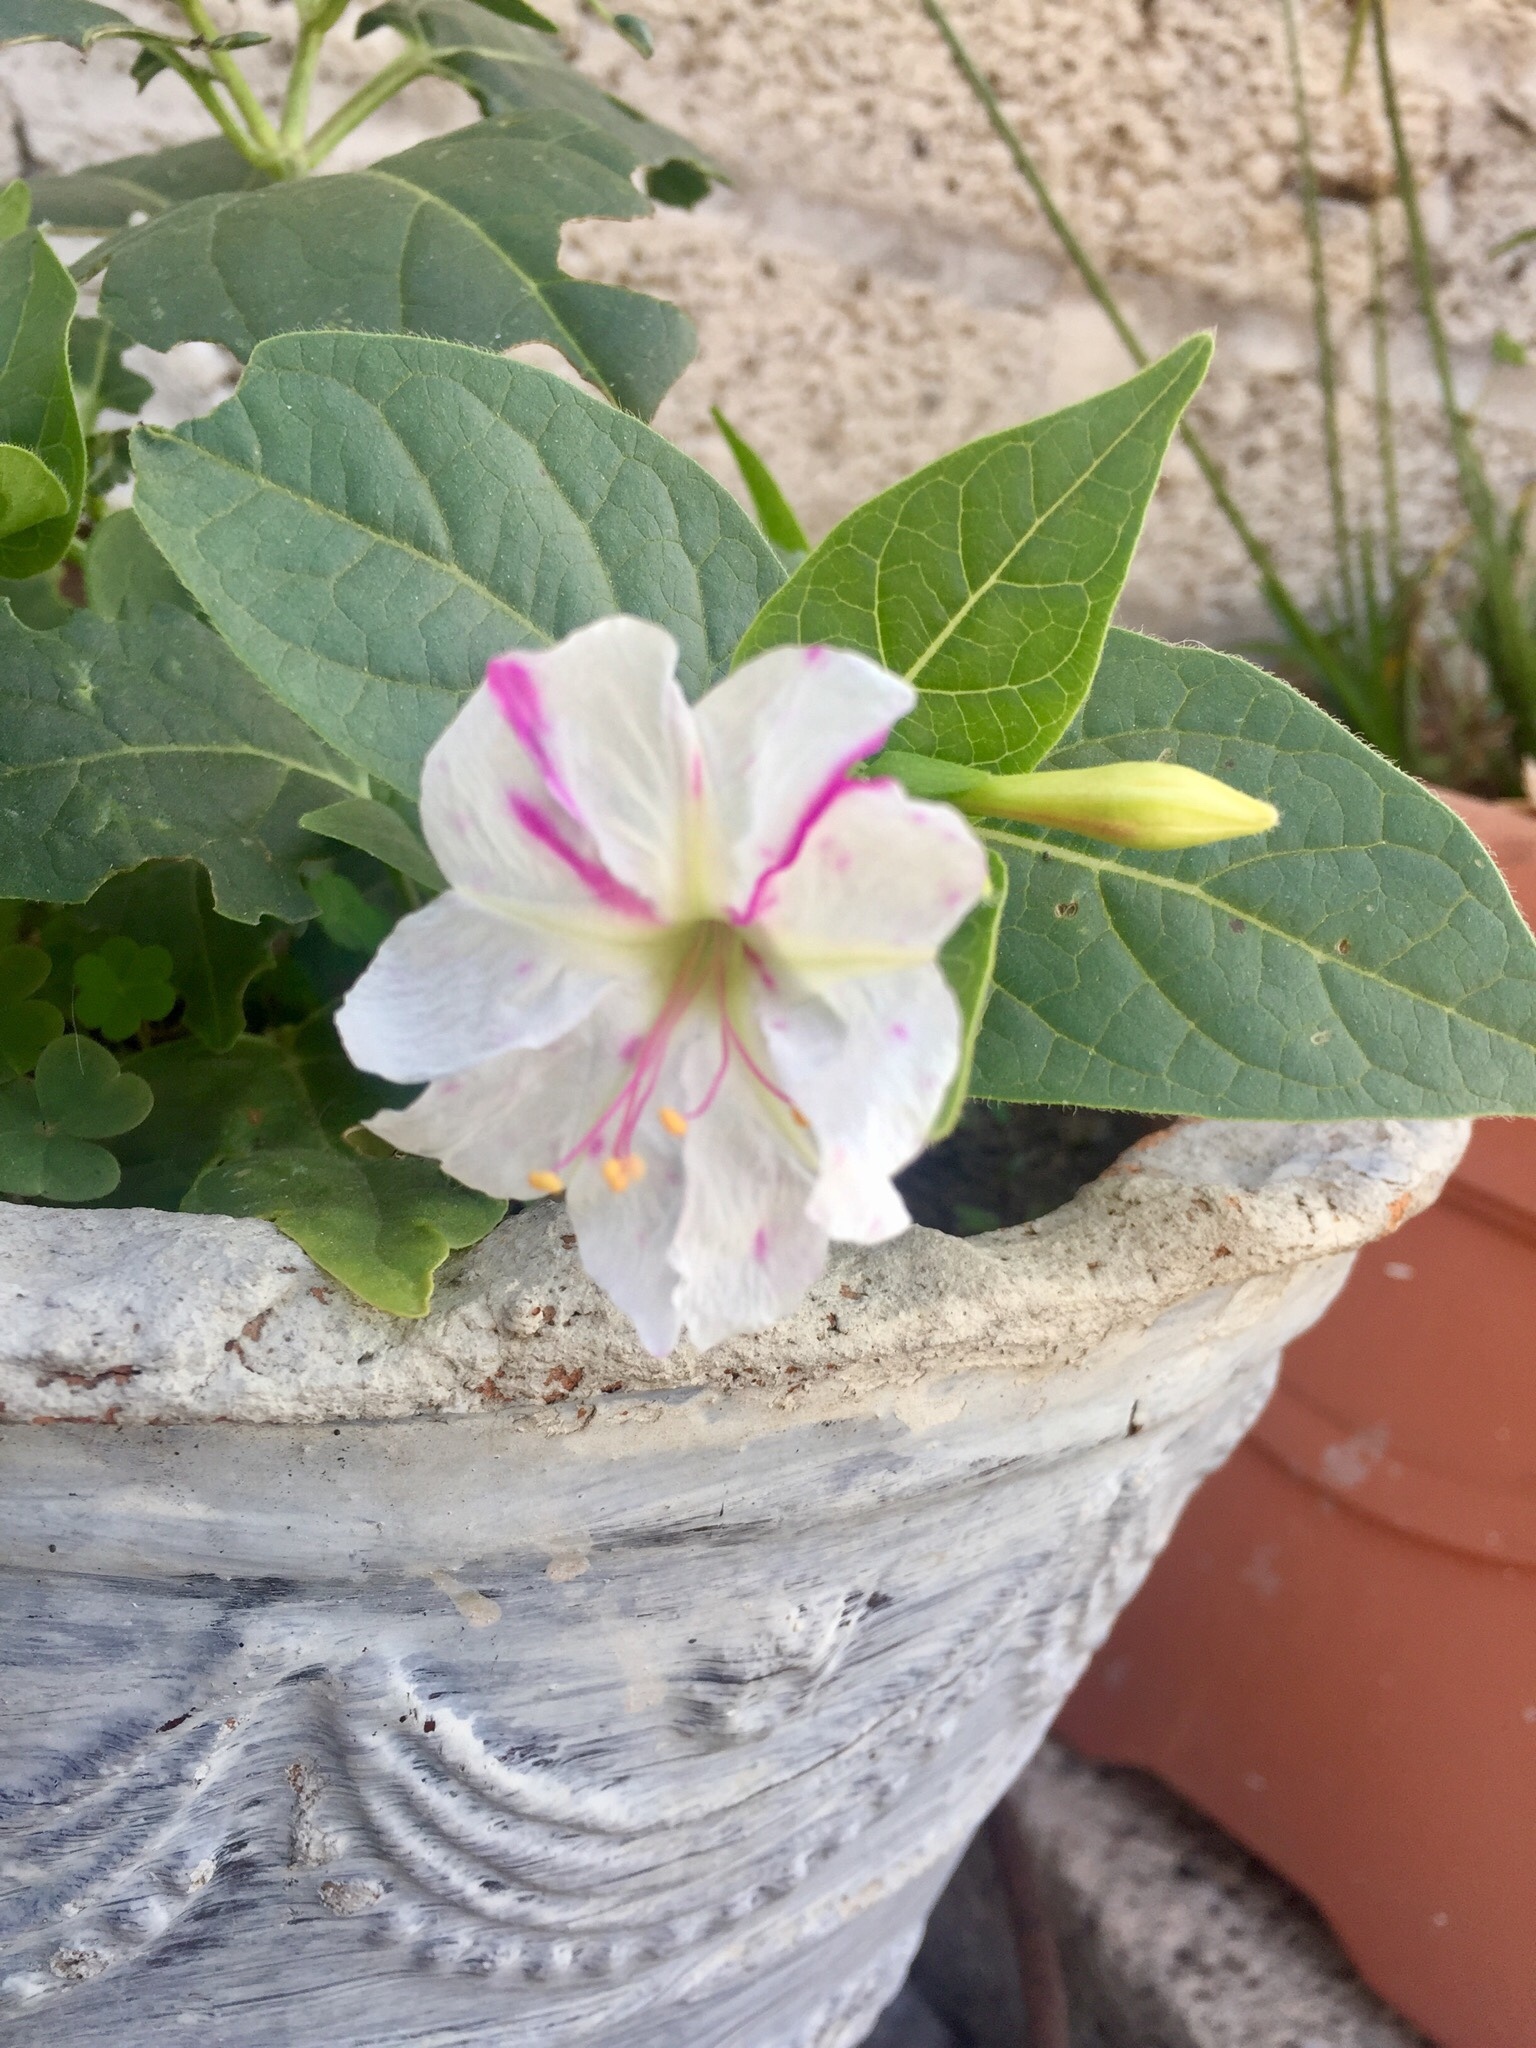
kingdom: Plantae
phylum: Tracheophyta
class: Magnoliopsida
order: Caryophyllales
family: Nyctaginaceae
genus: Mirabilis
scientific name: Mirabilis jalapa
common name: Marvel-of-peru
